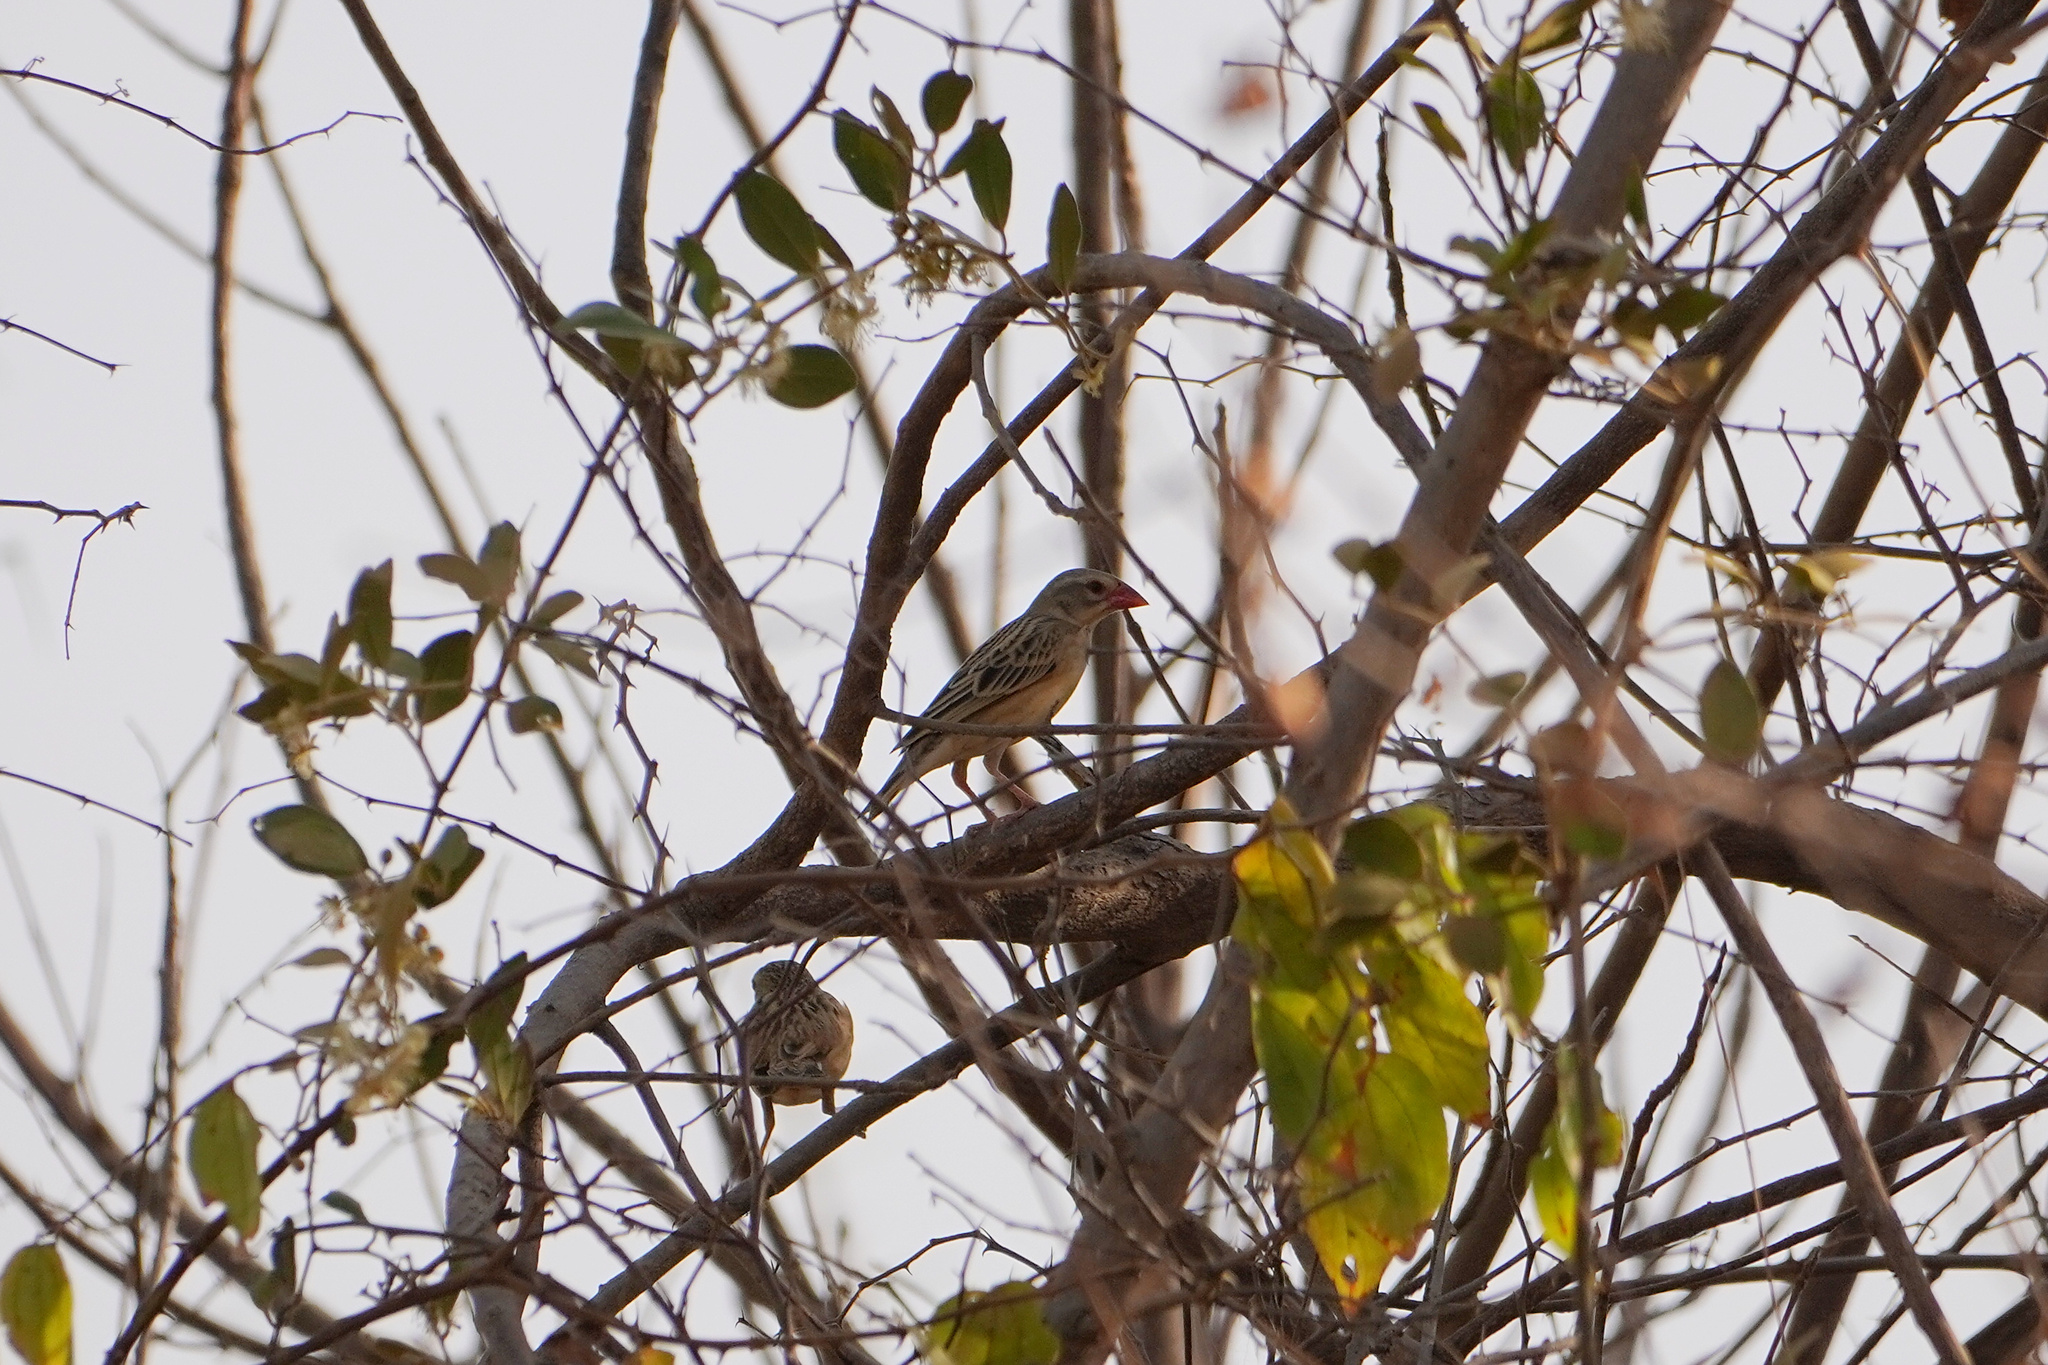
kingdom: Animalia
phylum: Chordata
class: Aves
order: Passeriformes
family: Ploceidae
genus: Quelea
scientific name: Quelea quelea
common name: Red-billed quelea
